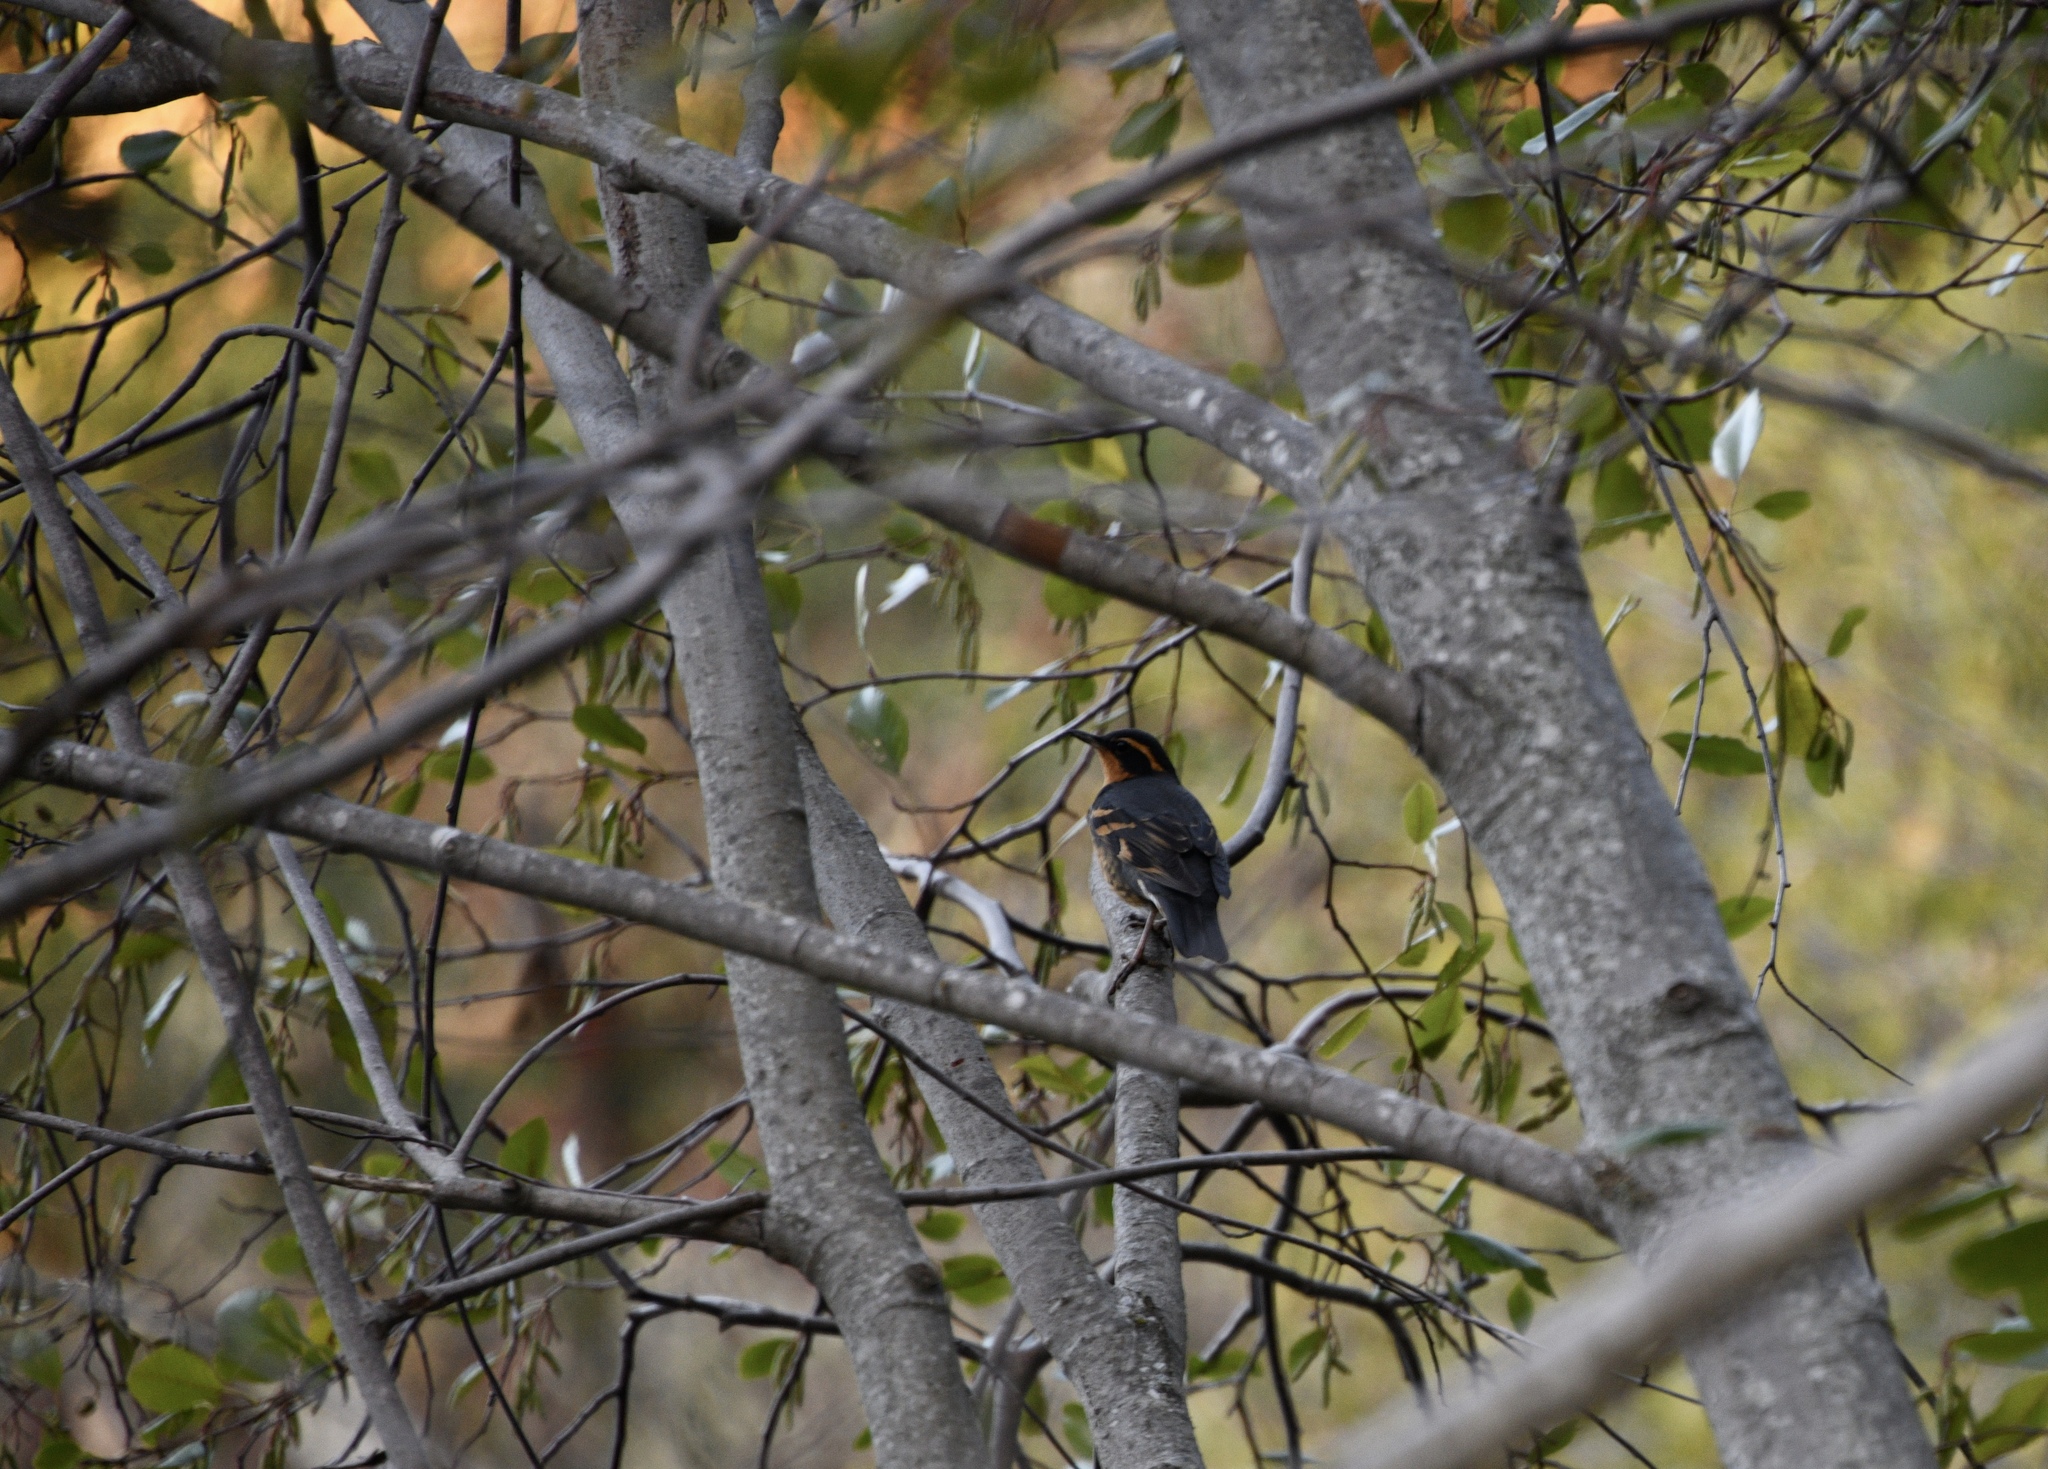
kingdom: Animalia
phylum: Chordata
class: Aves
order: Passeriformes
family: Turdidae
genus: Ixoreus
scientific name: Ixoreus naevius
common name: Varied thrush
